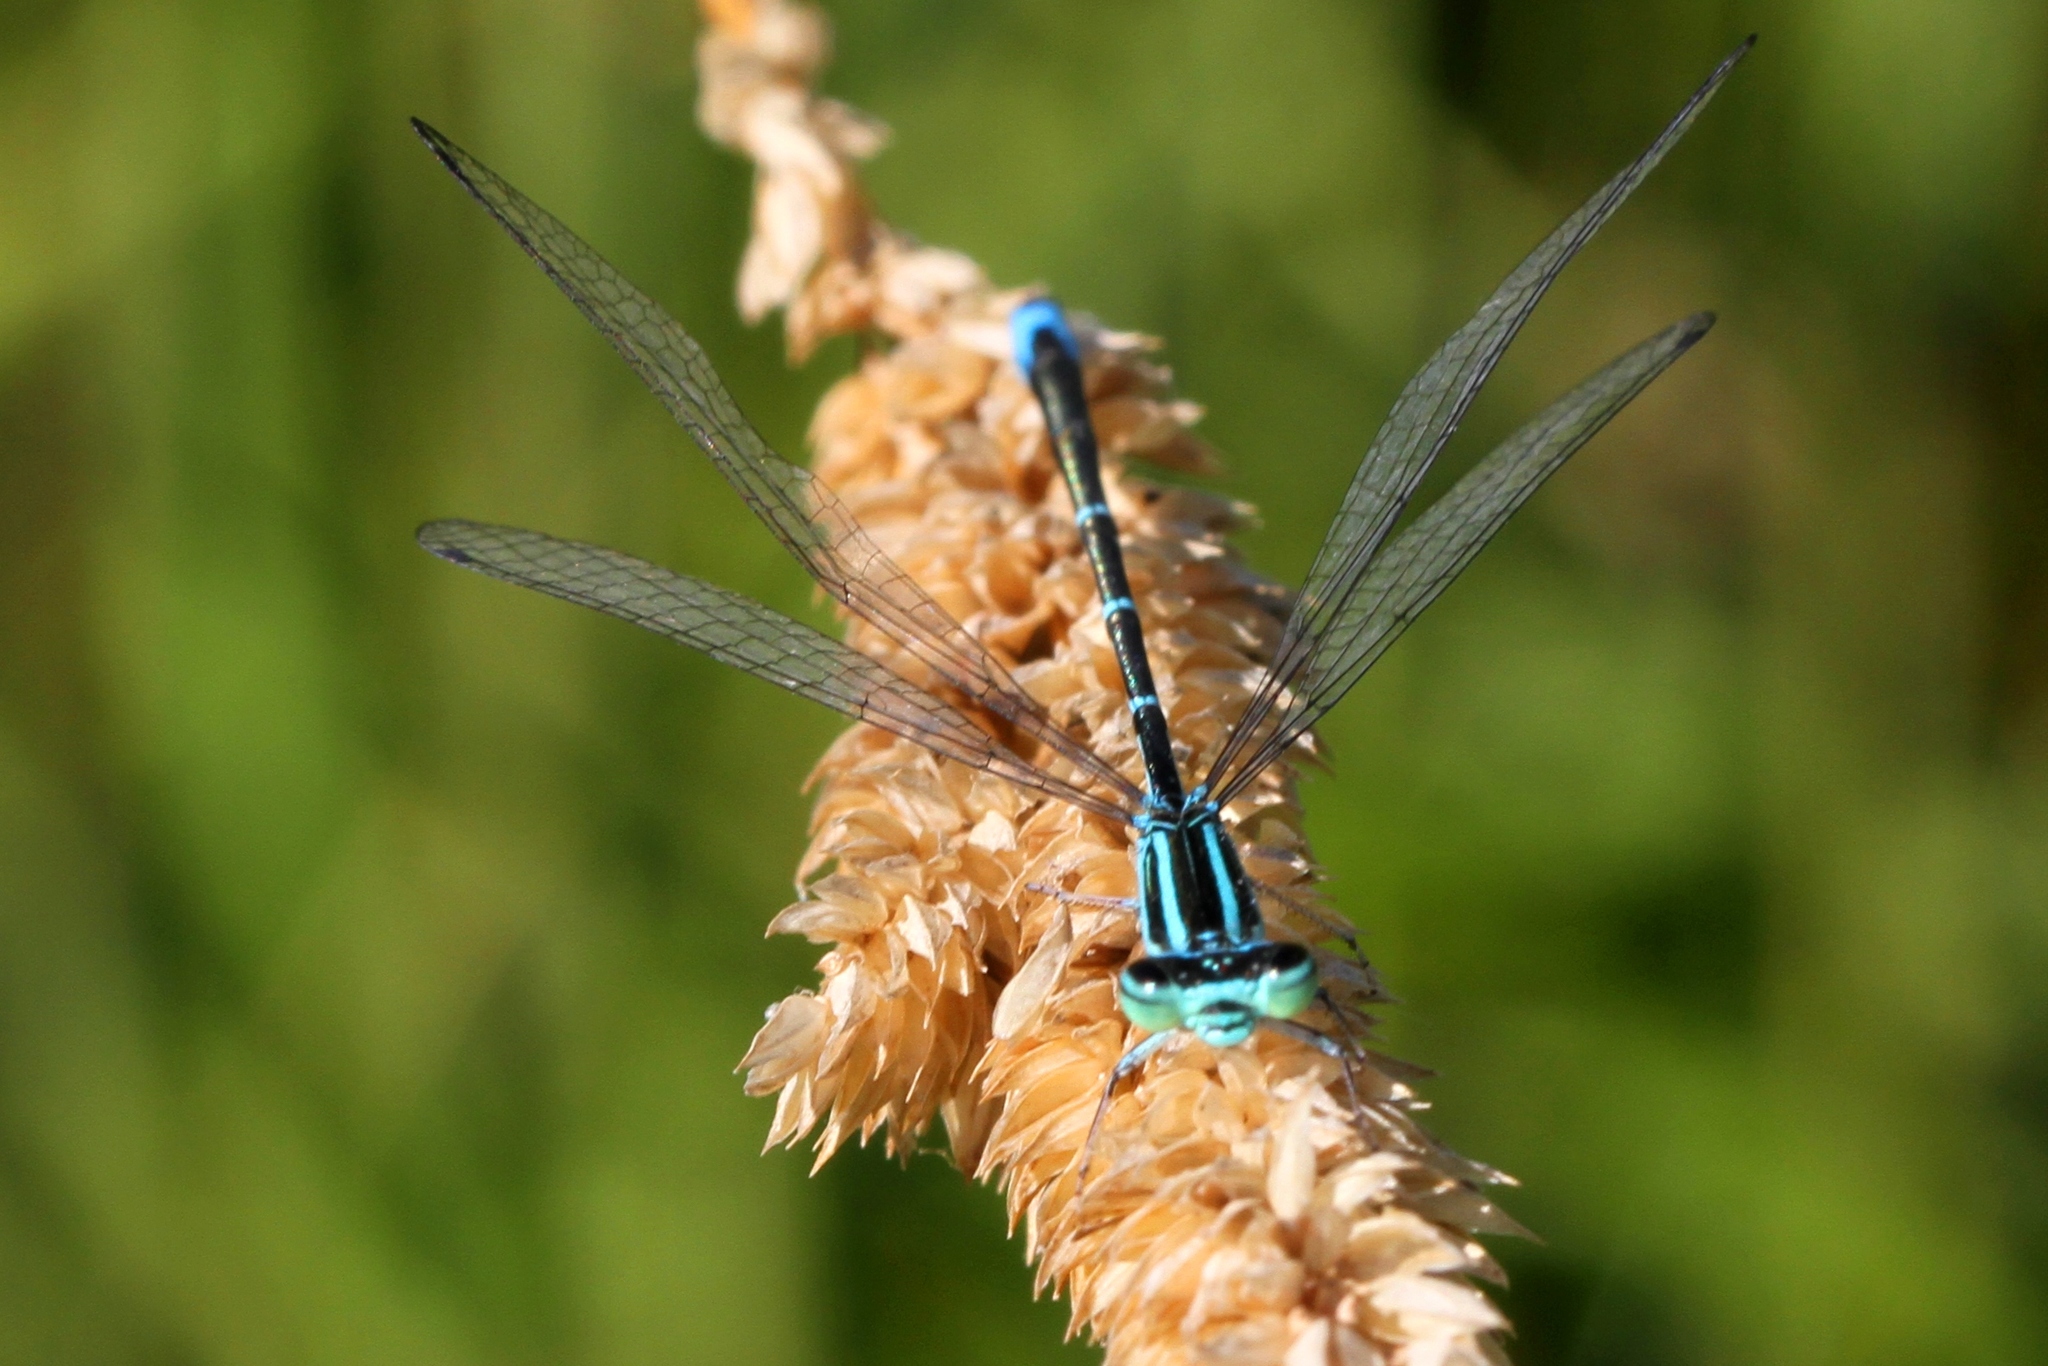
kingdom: Animalia
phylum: Arthropoda
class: Insecta
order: Odonata
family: Coenagrionidae
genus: Enallagma
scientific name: Enallagma exsulans
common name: Stream bluet
